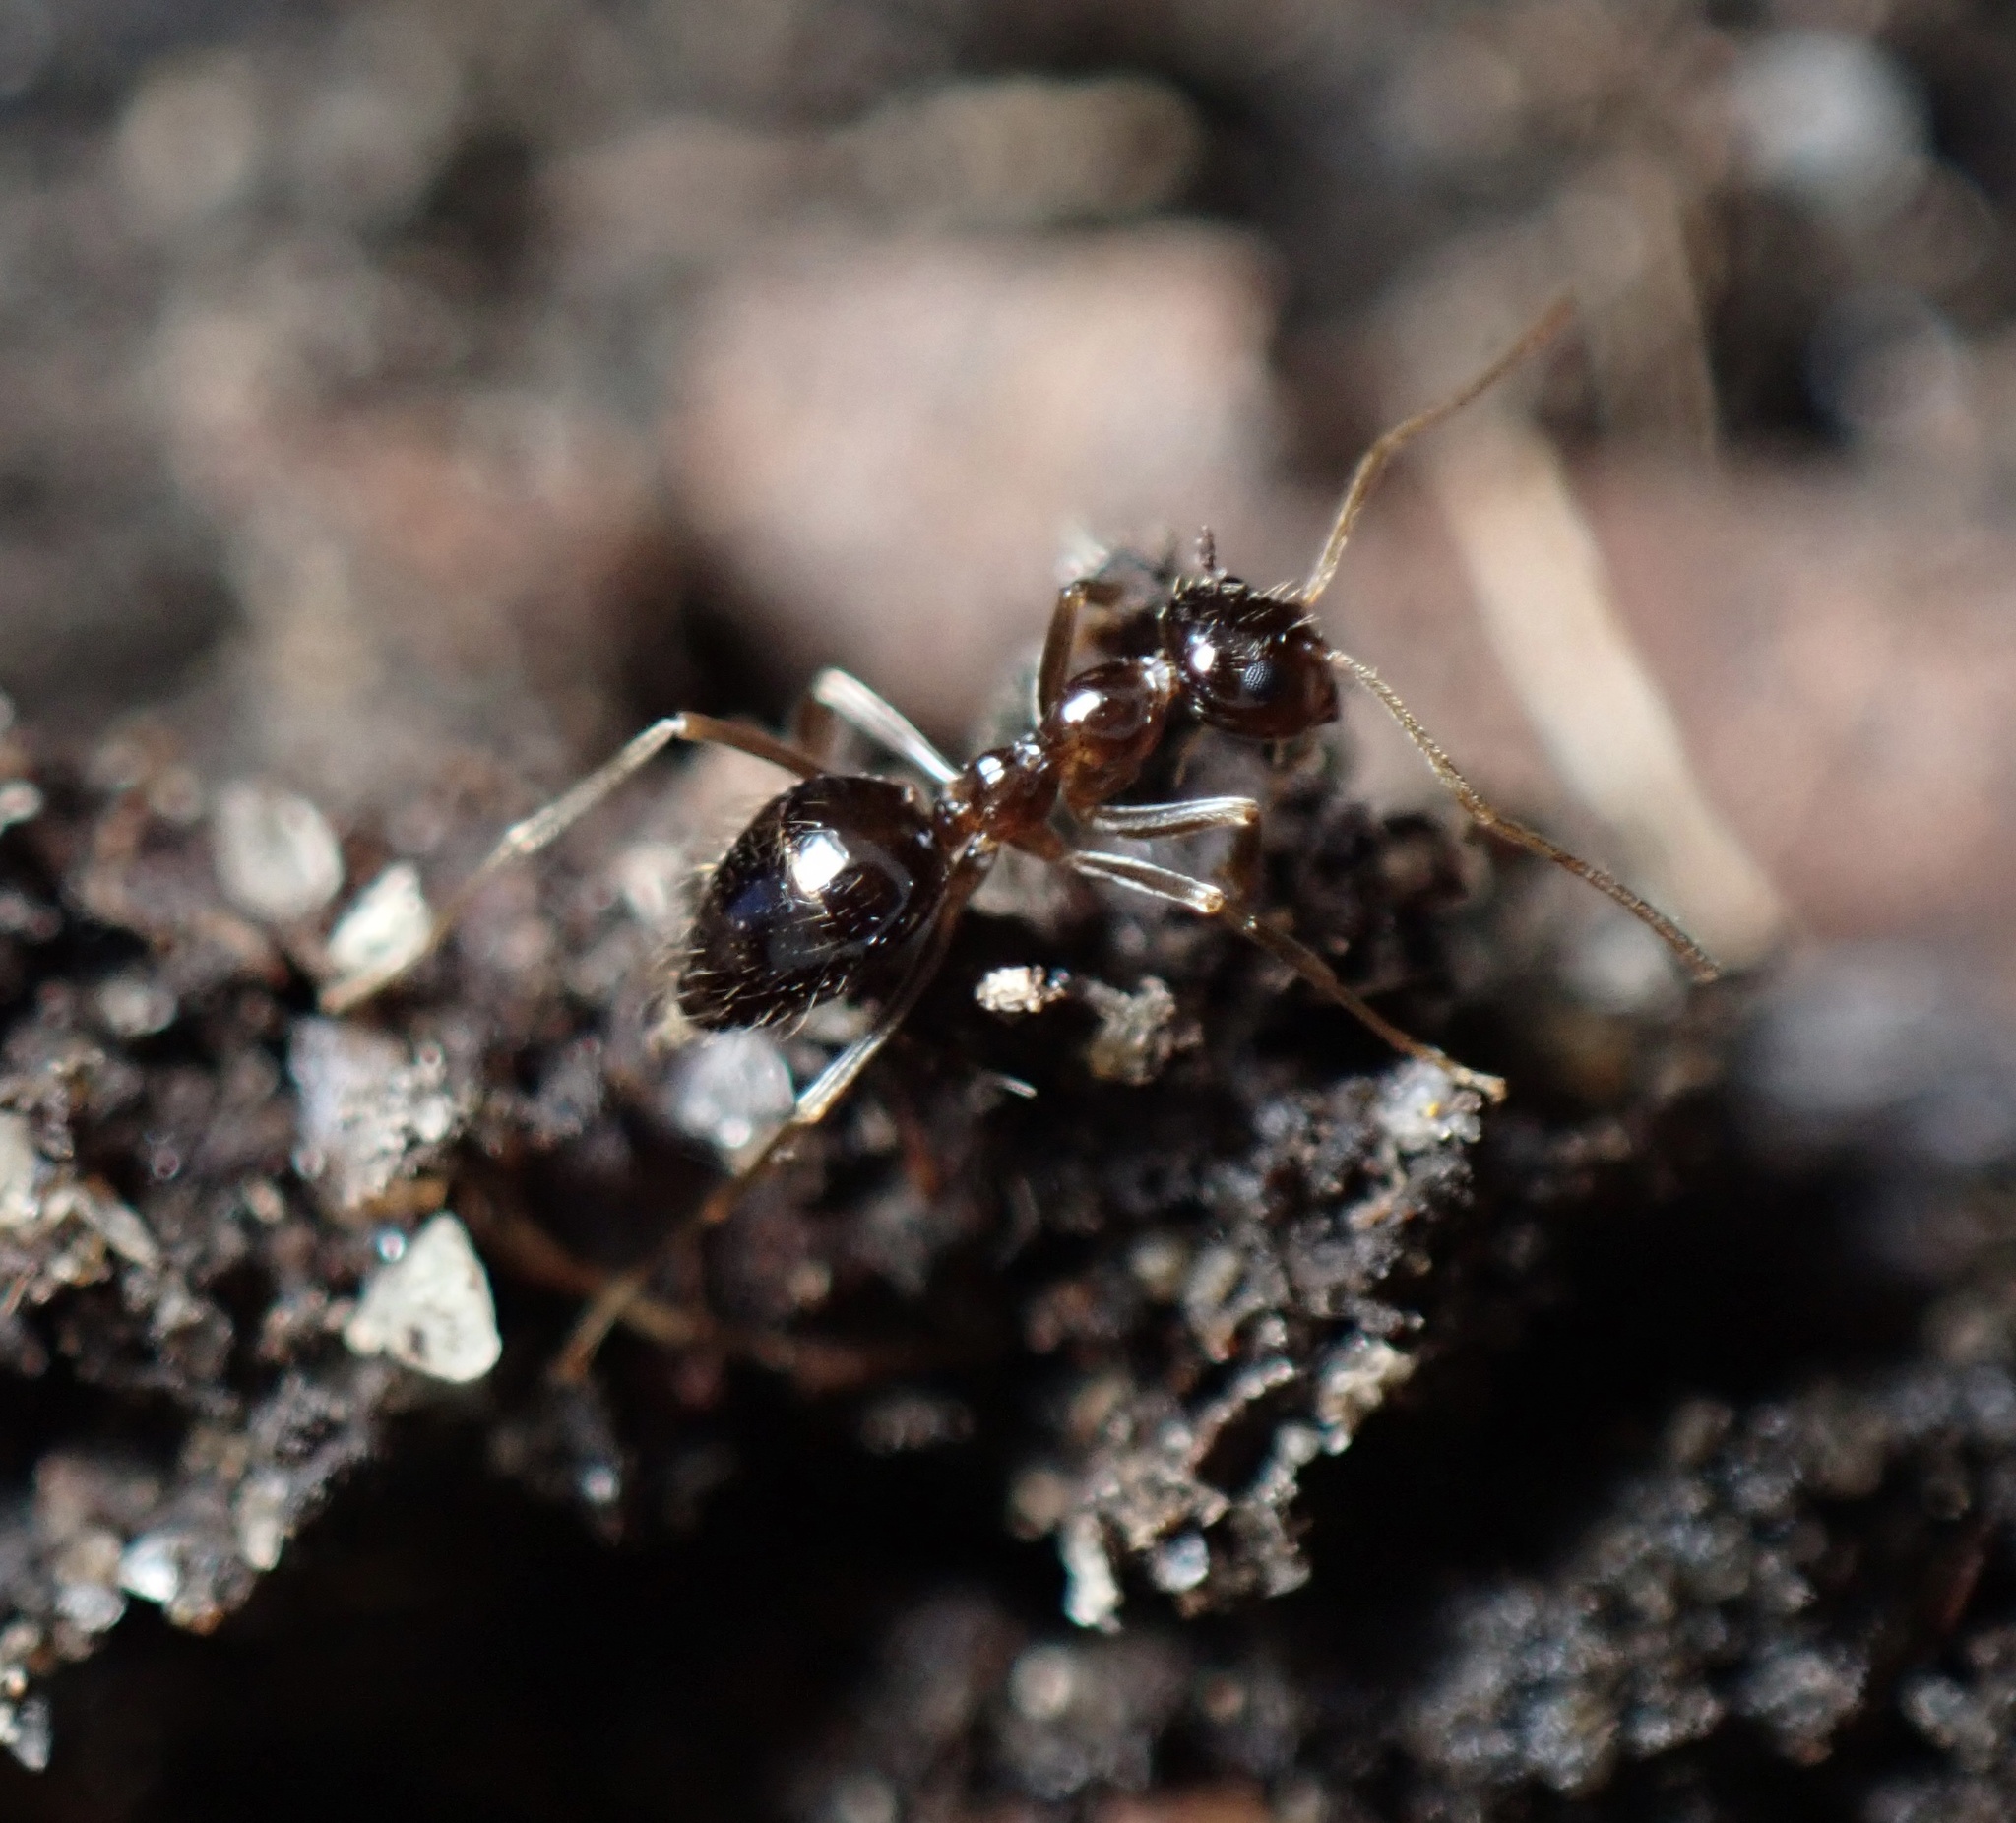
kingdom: Animalia
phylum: Arthropoda
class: Insecta
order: Hymenoptera
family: Formicidae
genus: Prenolepis
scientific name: Prenolepis imparis
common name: Small honey ant
